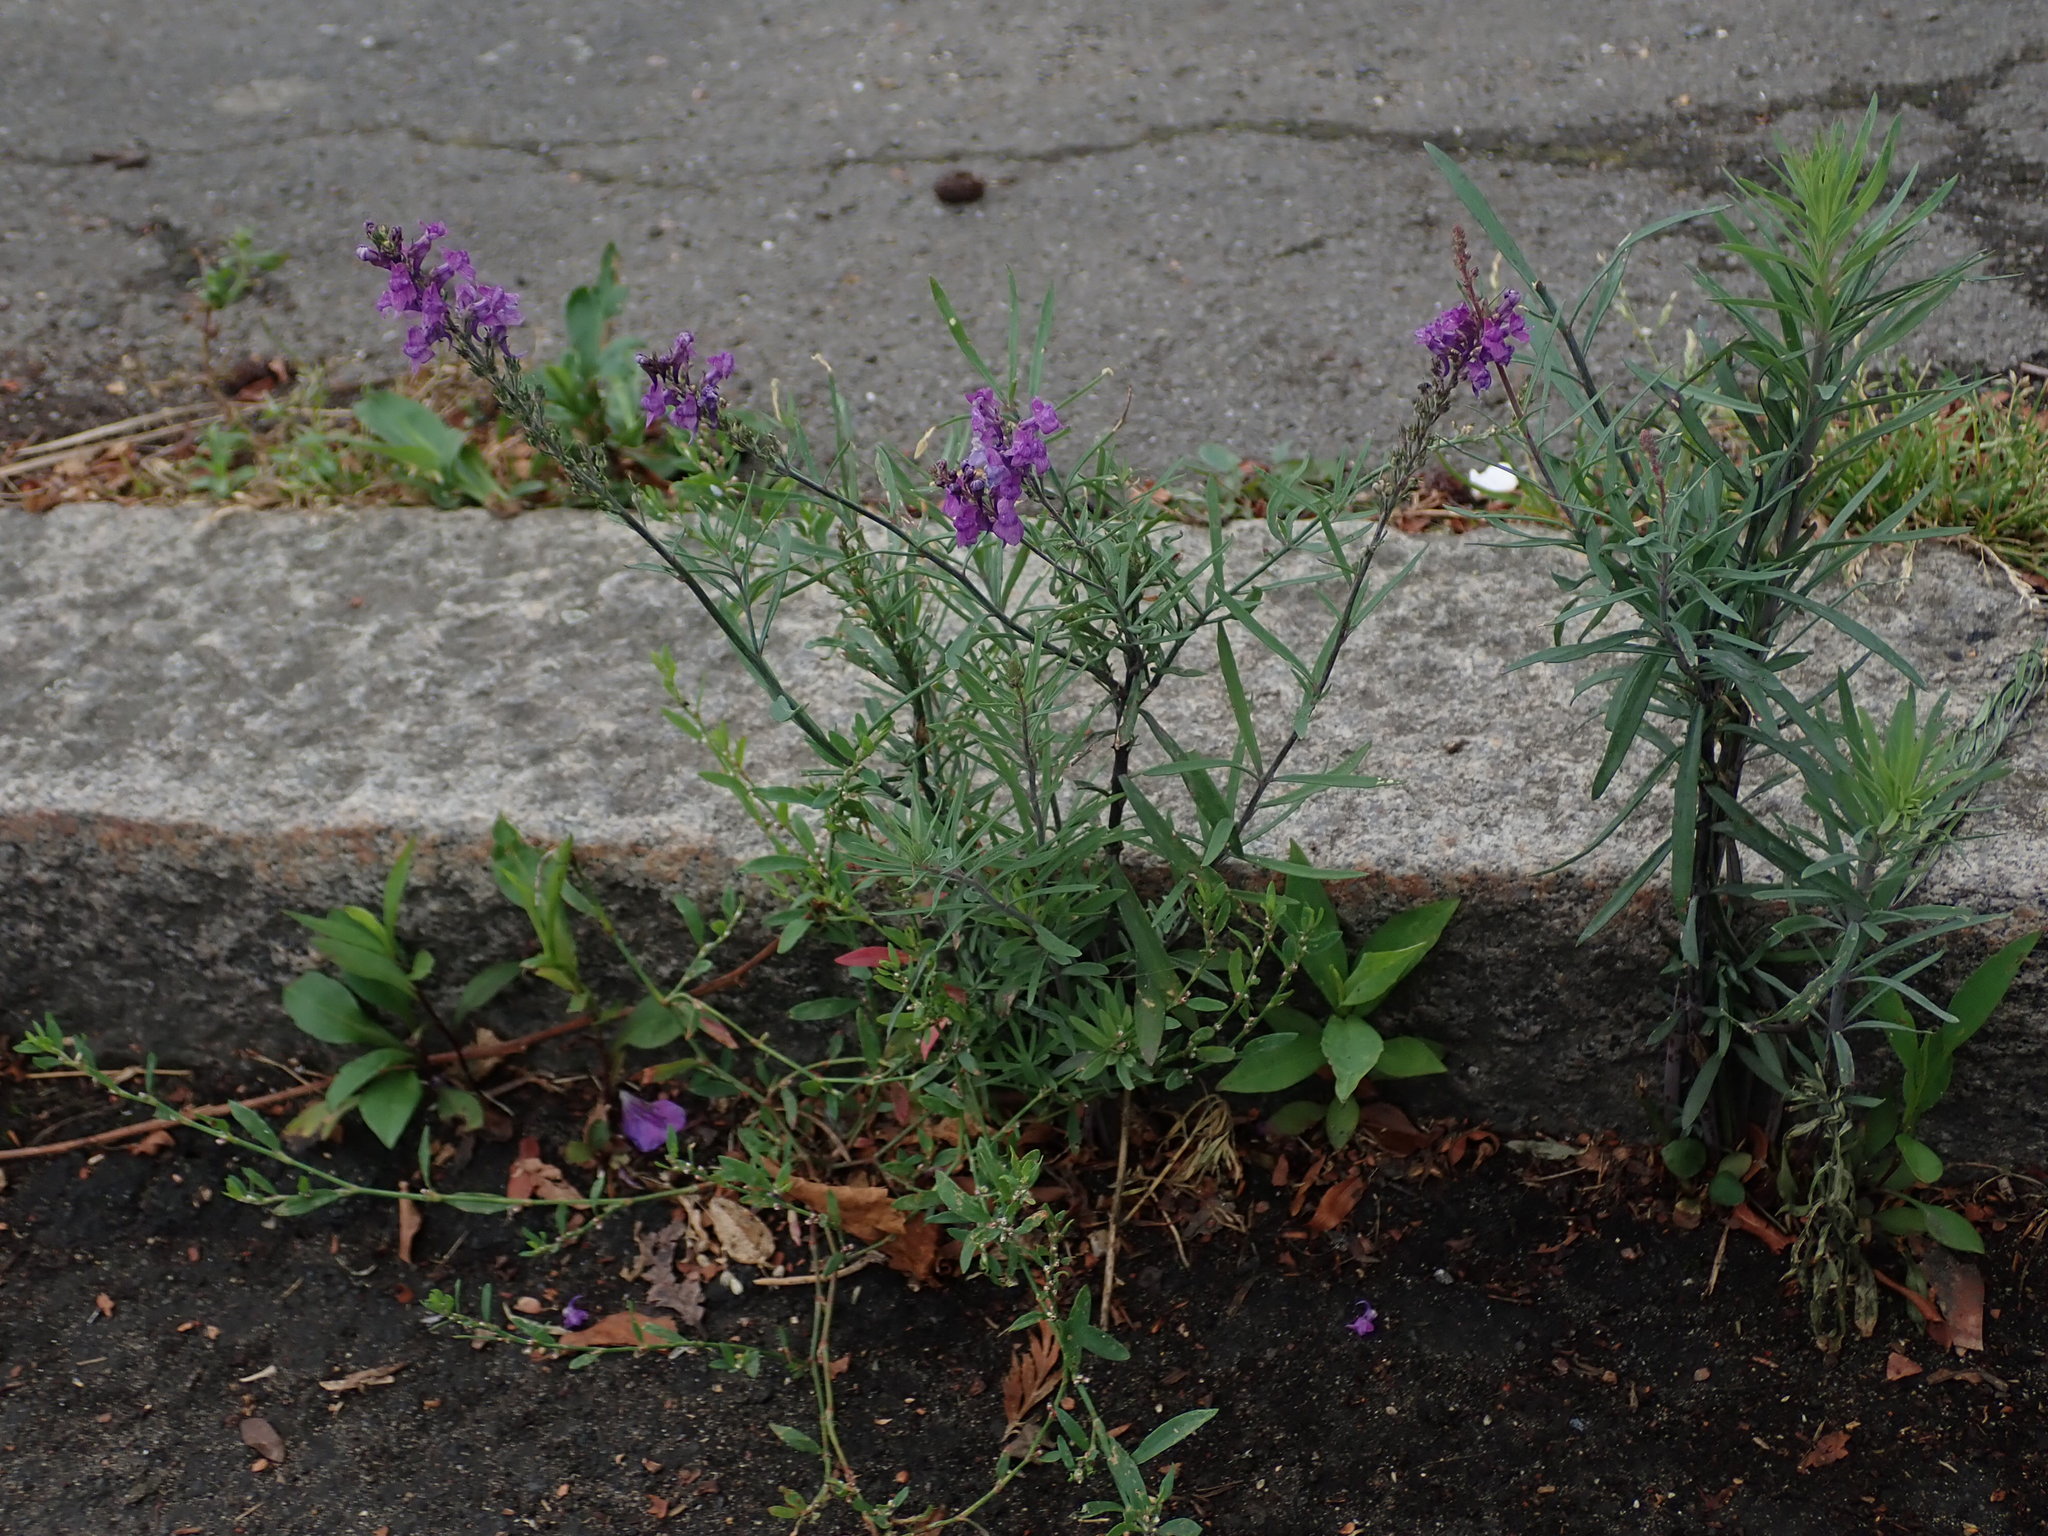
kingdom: Plantae
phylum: Tracheophyta
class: Magnoliopsida
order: Lamiales
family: Plantaginaceae
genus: Linaria
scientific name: Linaria purpurea
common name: Purple toadflax
